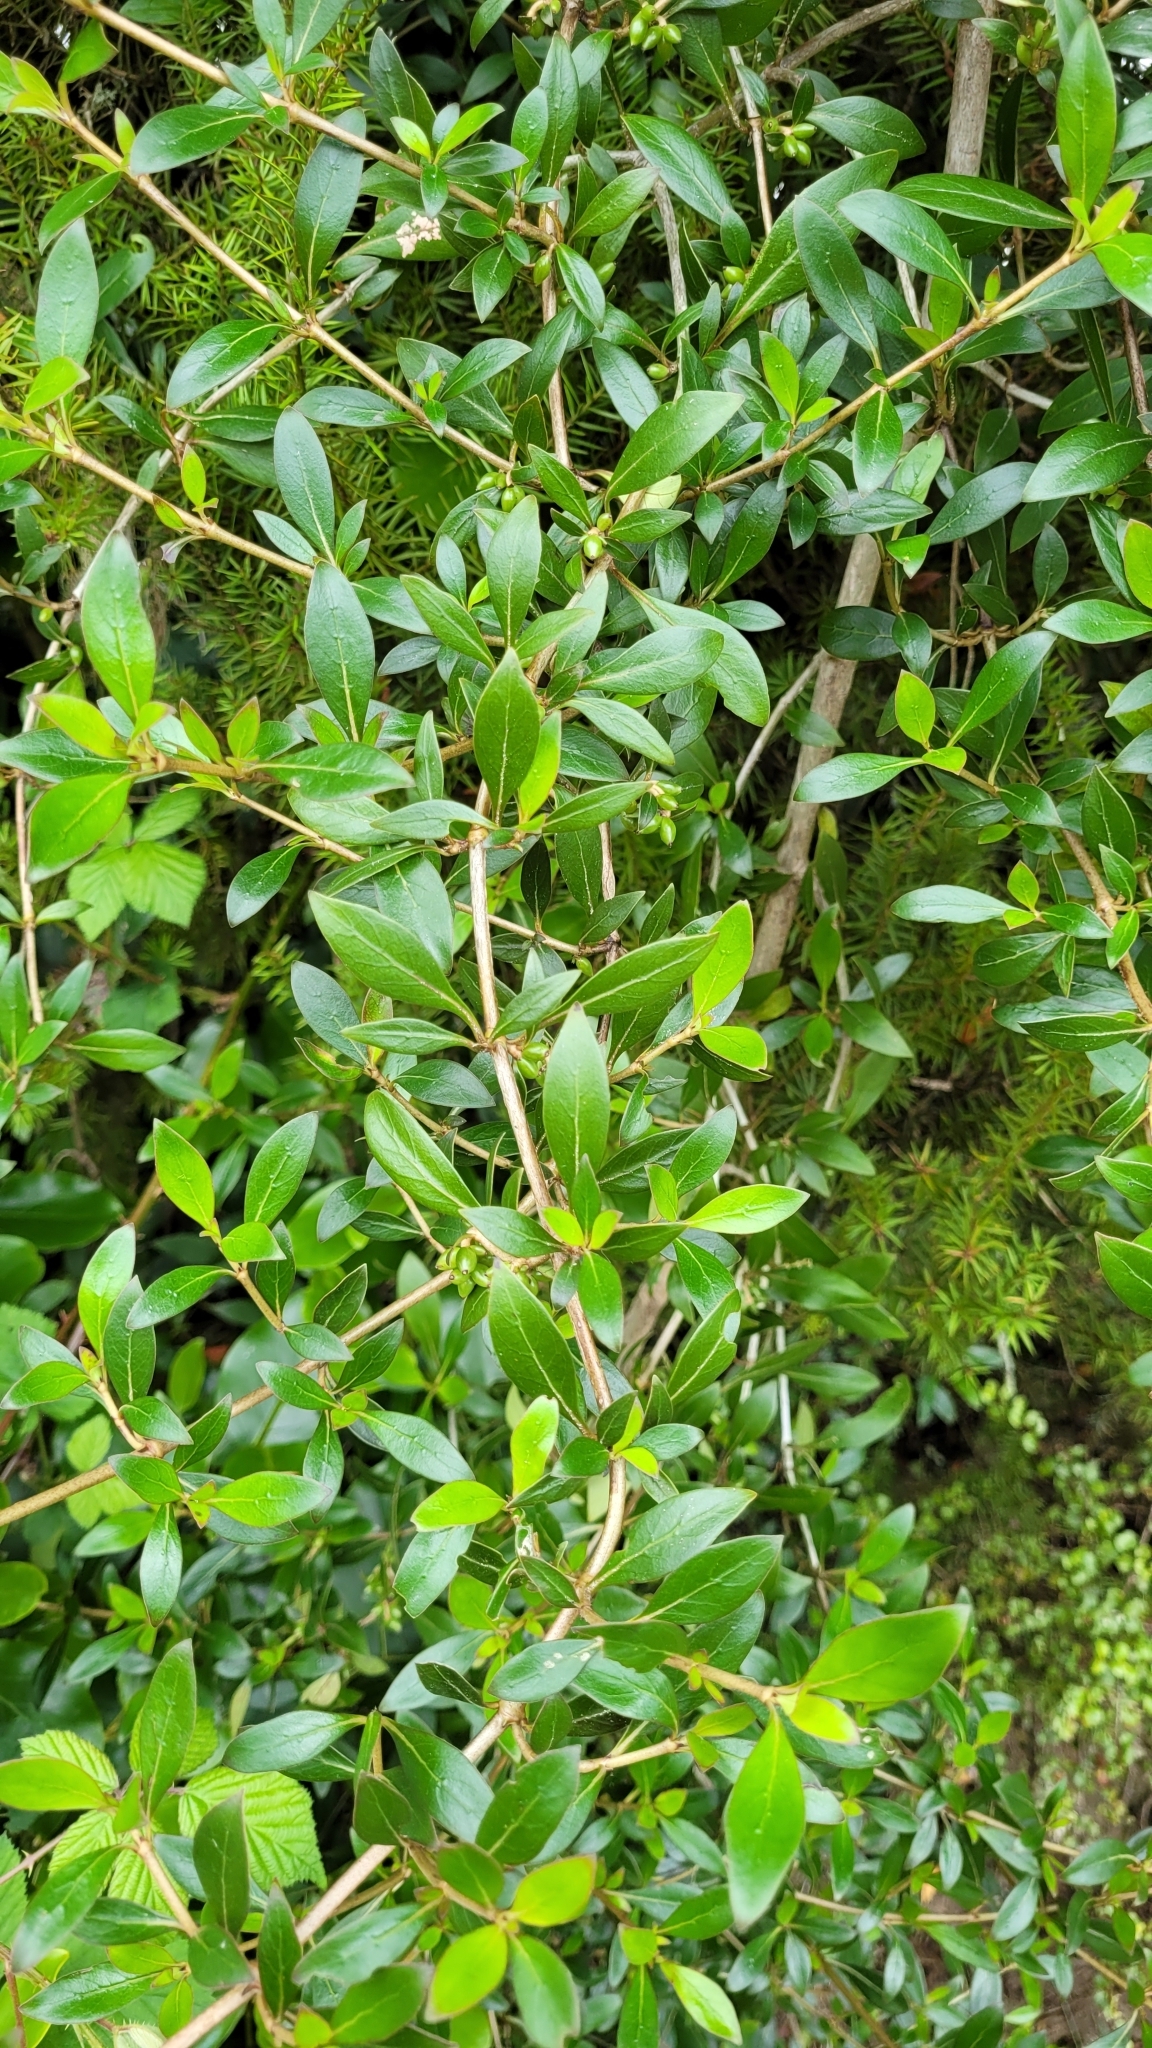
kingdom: Plantae
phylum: Tracheophyta
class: Magnoliopsida
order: Gentianales
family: Rubiaceae
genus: Coprosma
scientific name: Coprosma cunninghamii
